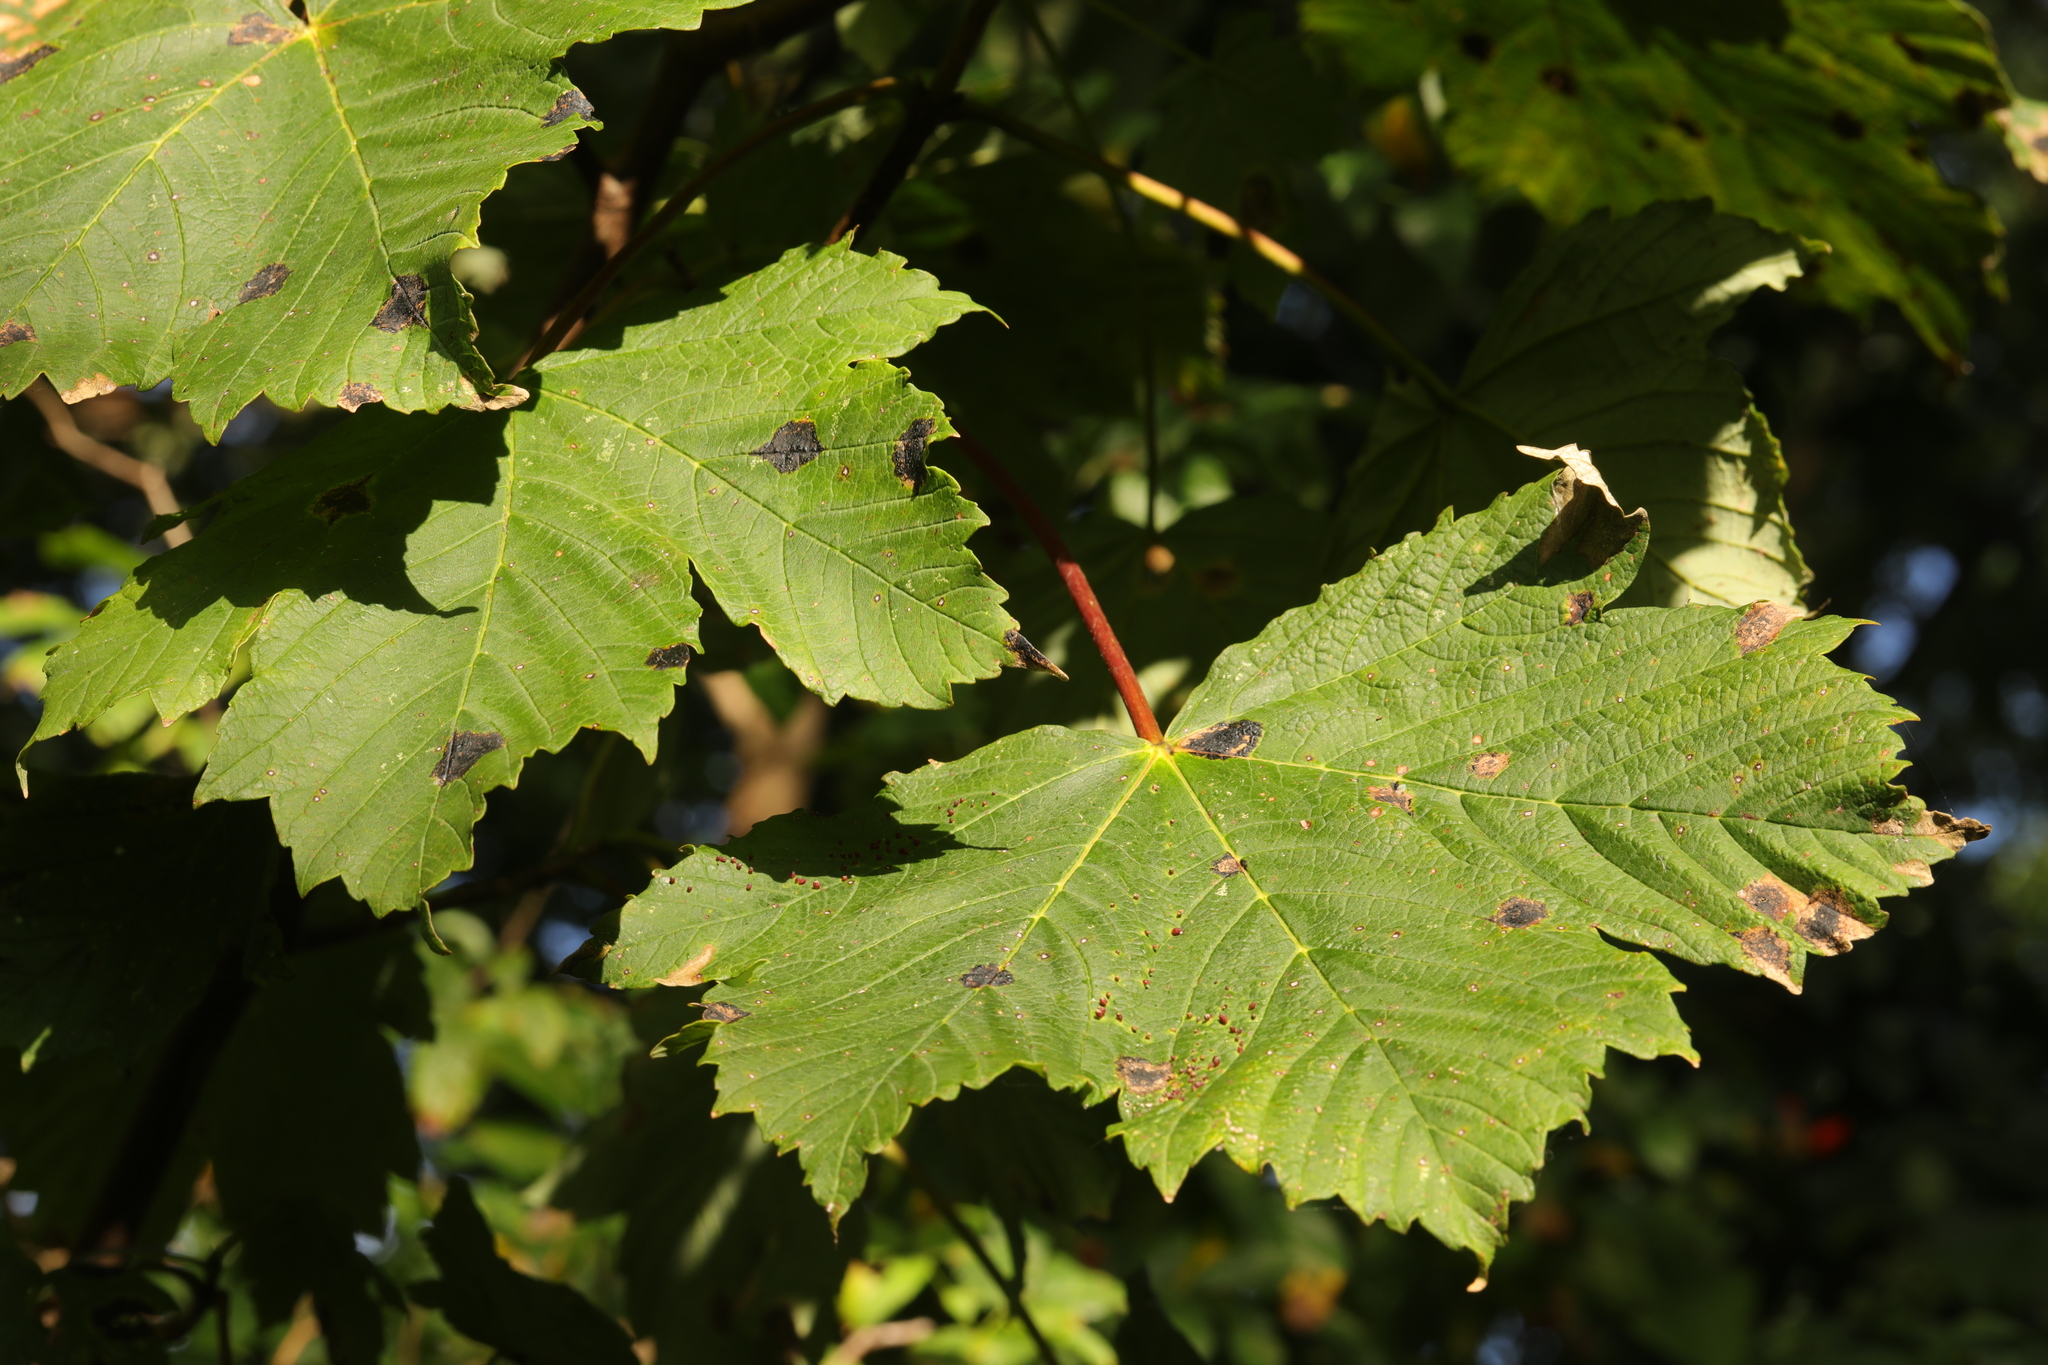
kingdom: Plantae
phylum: Tracheophyta
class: Magnoliopsida
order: Sapindales
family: Sapindaceae
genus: Acer
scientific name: Acer pseudoplatanus
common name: Sycamore
